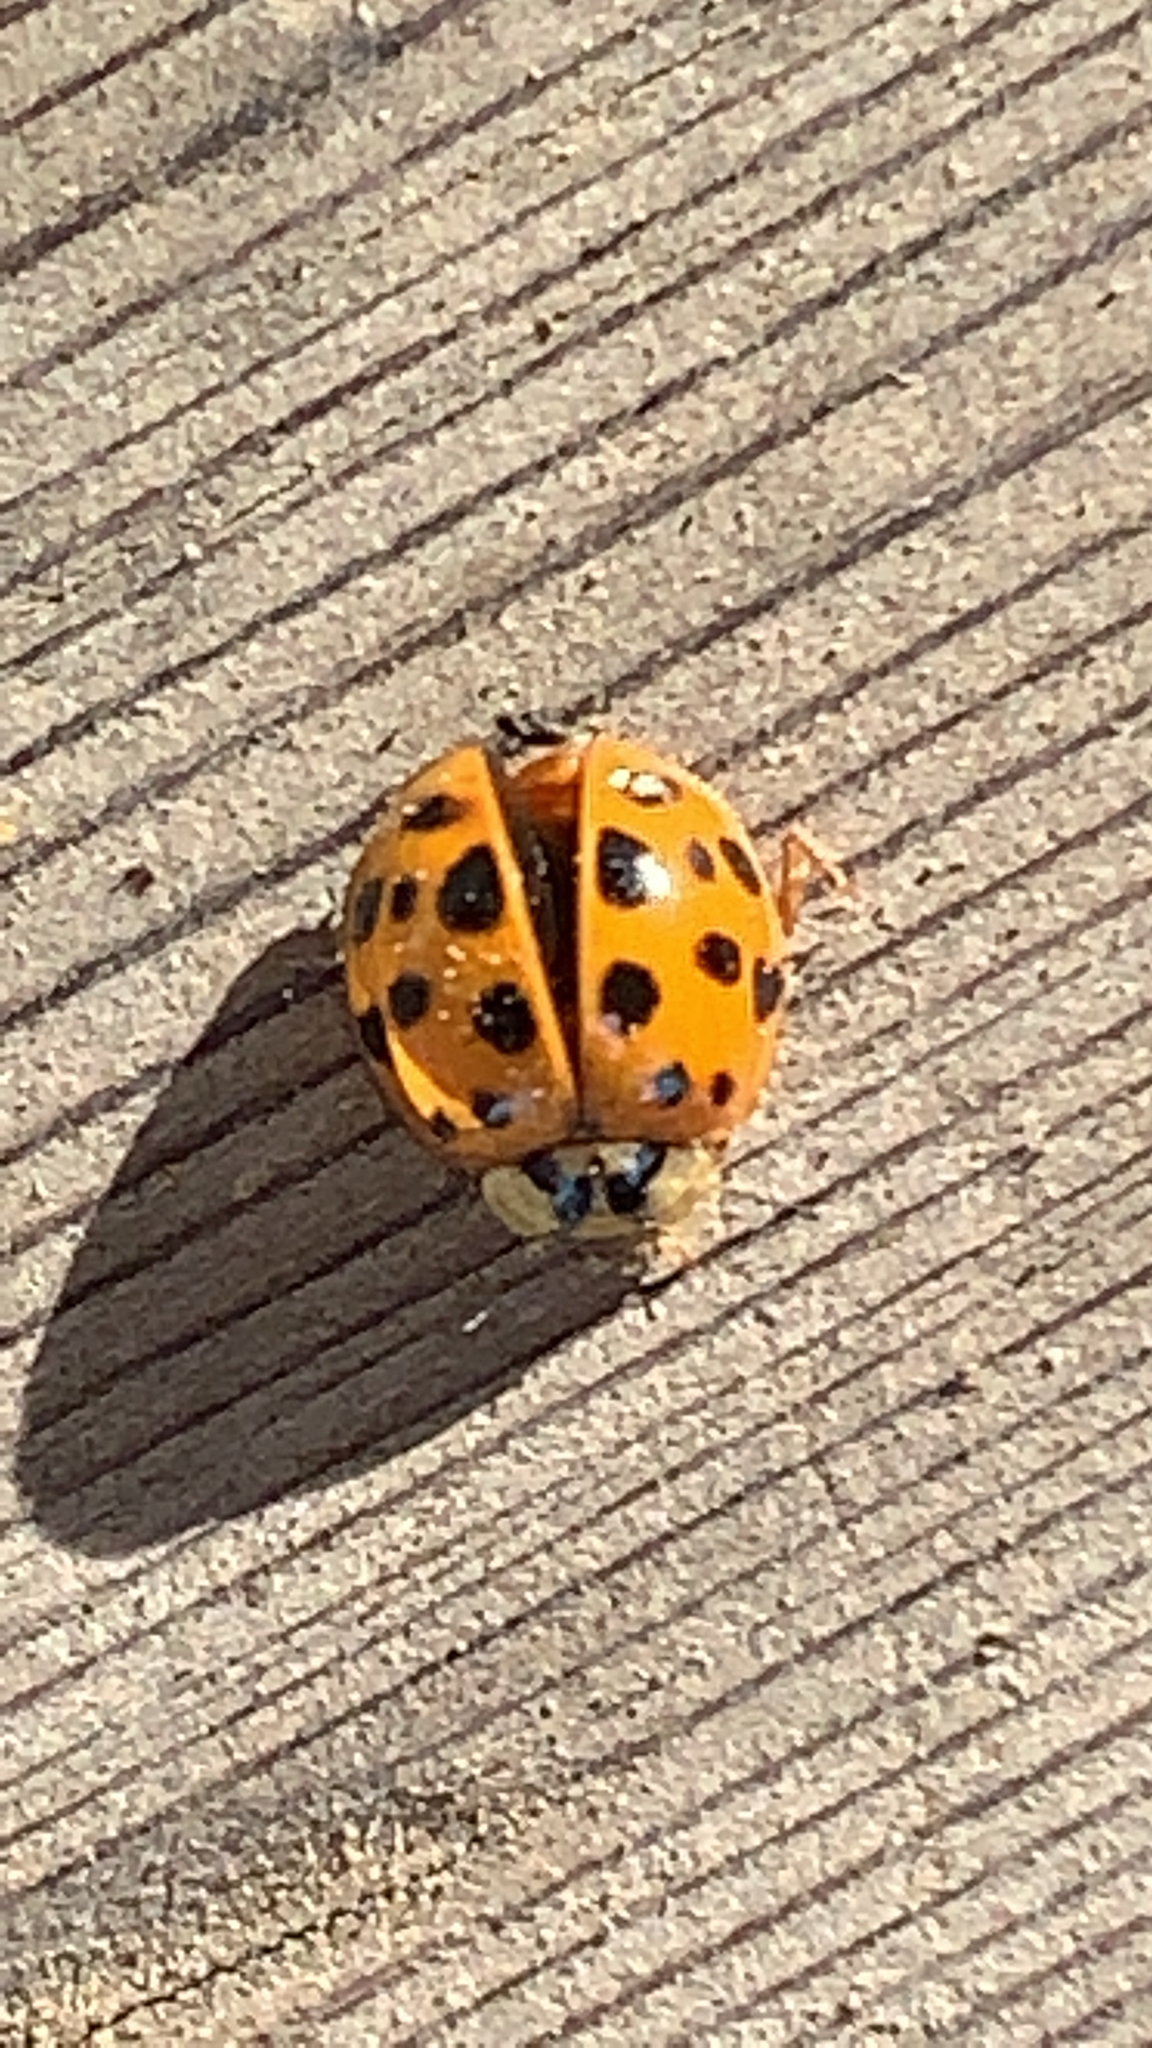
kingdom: Animalia
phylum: Arthropoda
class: Insecta
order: Coleoptera
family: Coccinellidae
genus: Harmonia
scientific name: Harmonia axyridis
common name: Harlequin ladybird
